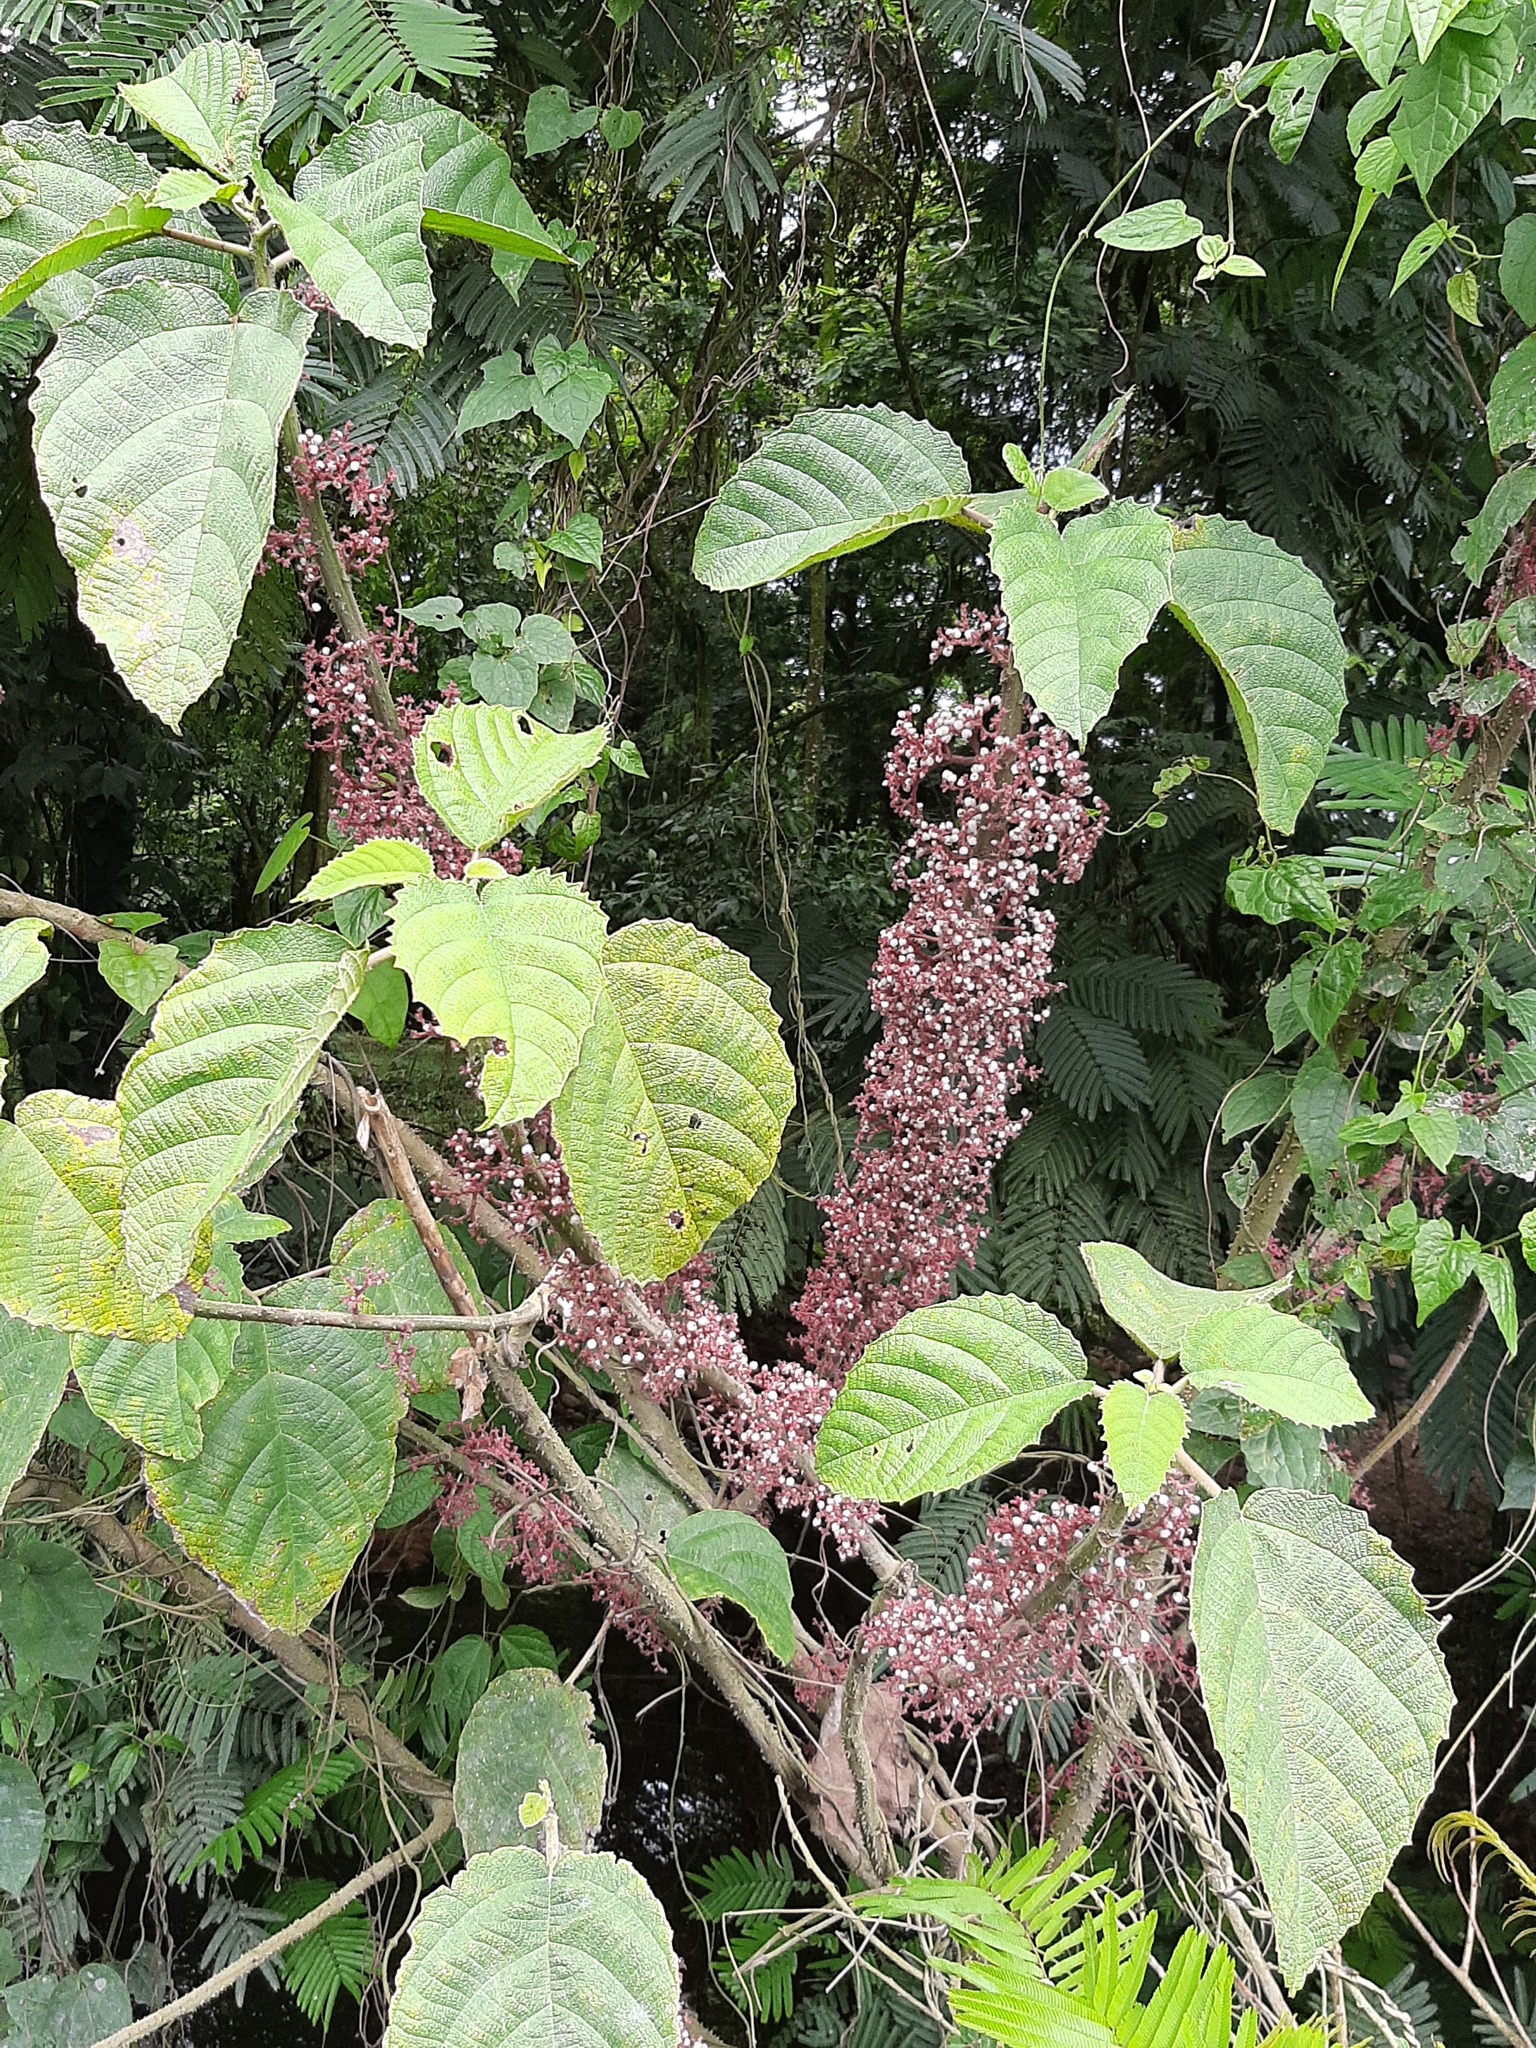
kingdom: Plantae
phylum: Tracheophyta
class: Magnoliopsida
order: Rosales
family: Urticaceae
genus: Urera
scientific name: Urera baccifera
